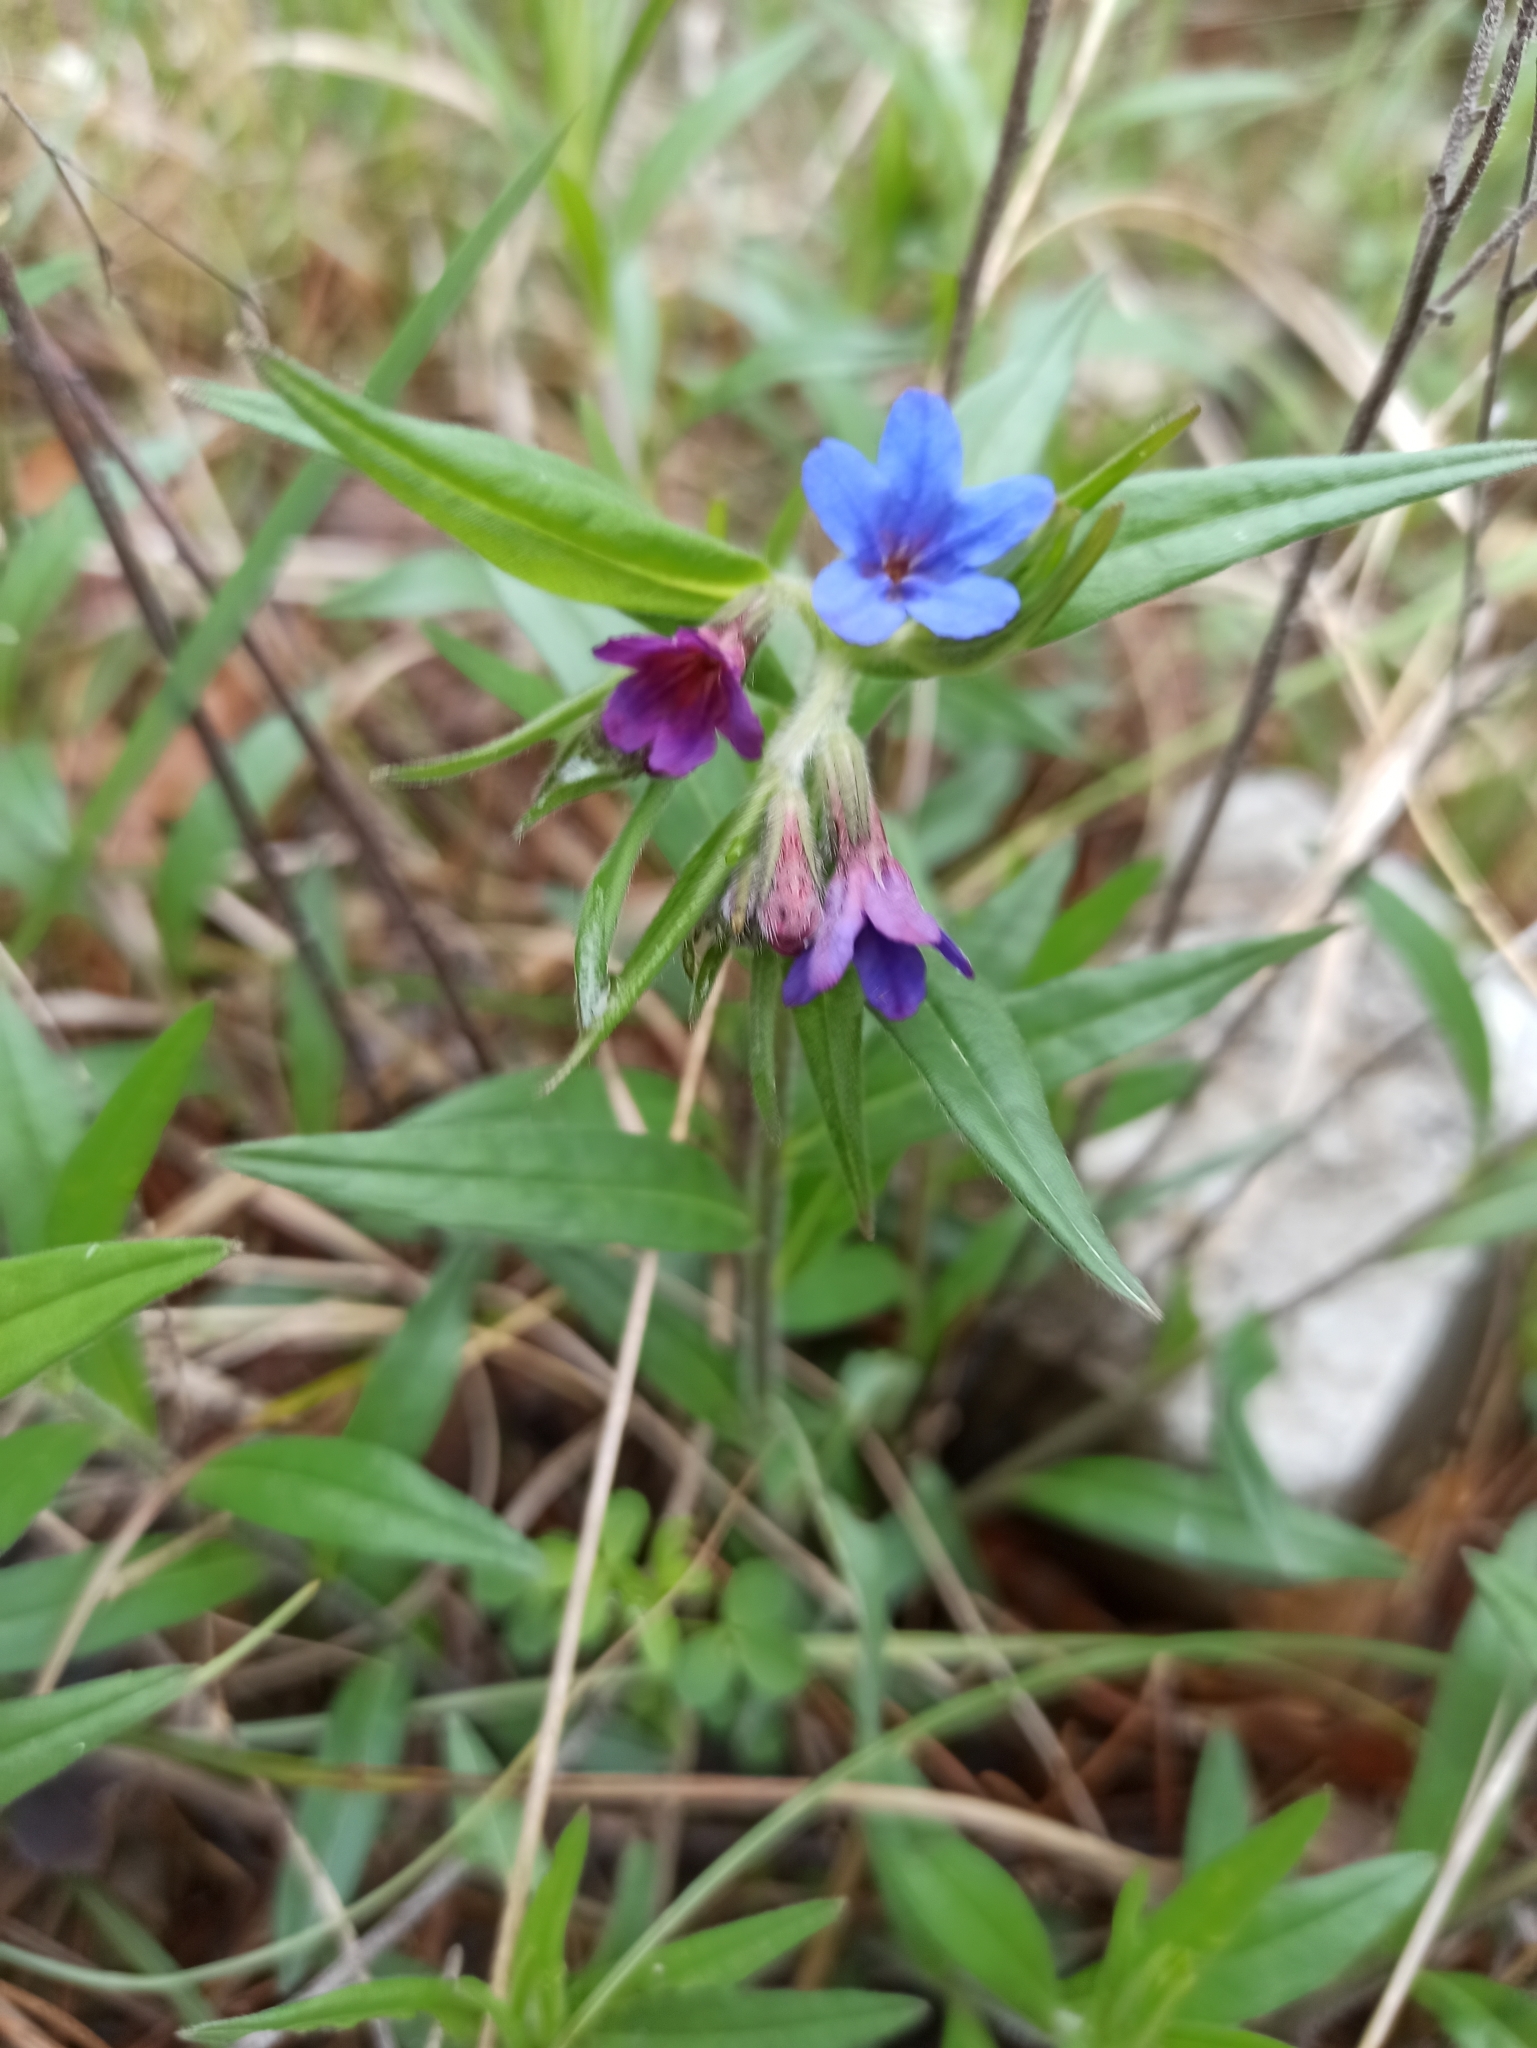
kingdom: Plantae
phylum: Tracheophyta
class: Magnoliopsida
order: Boraginales
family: Boraginaceae
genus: Aegonychon
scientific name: Aegonychon purpurocaeruleum
